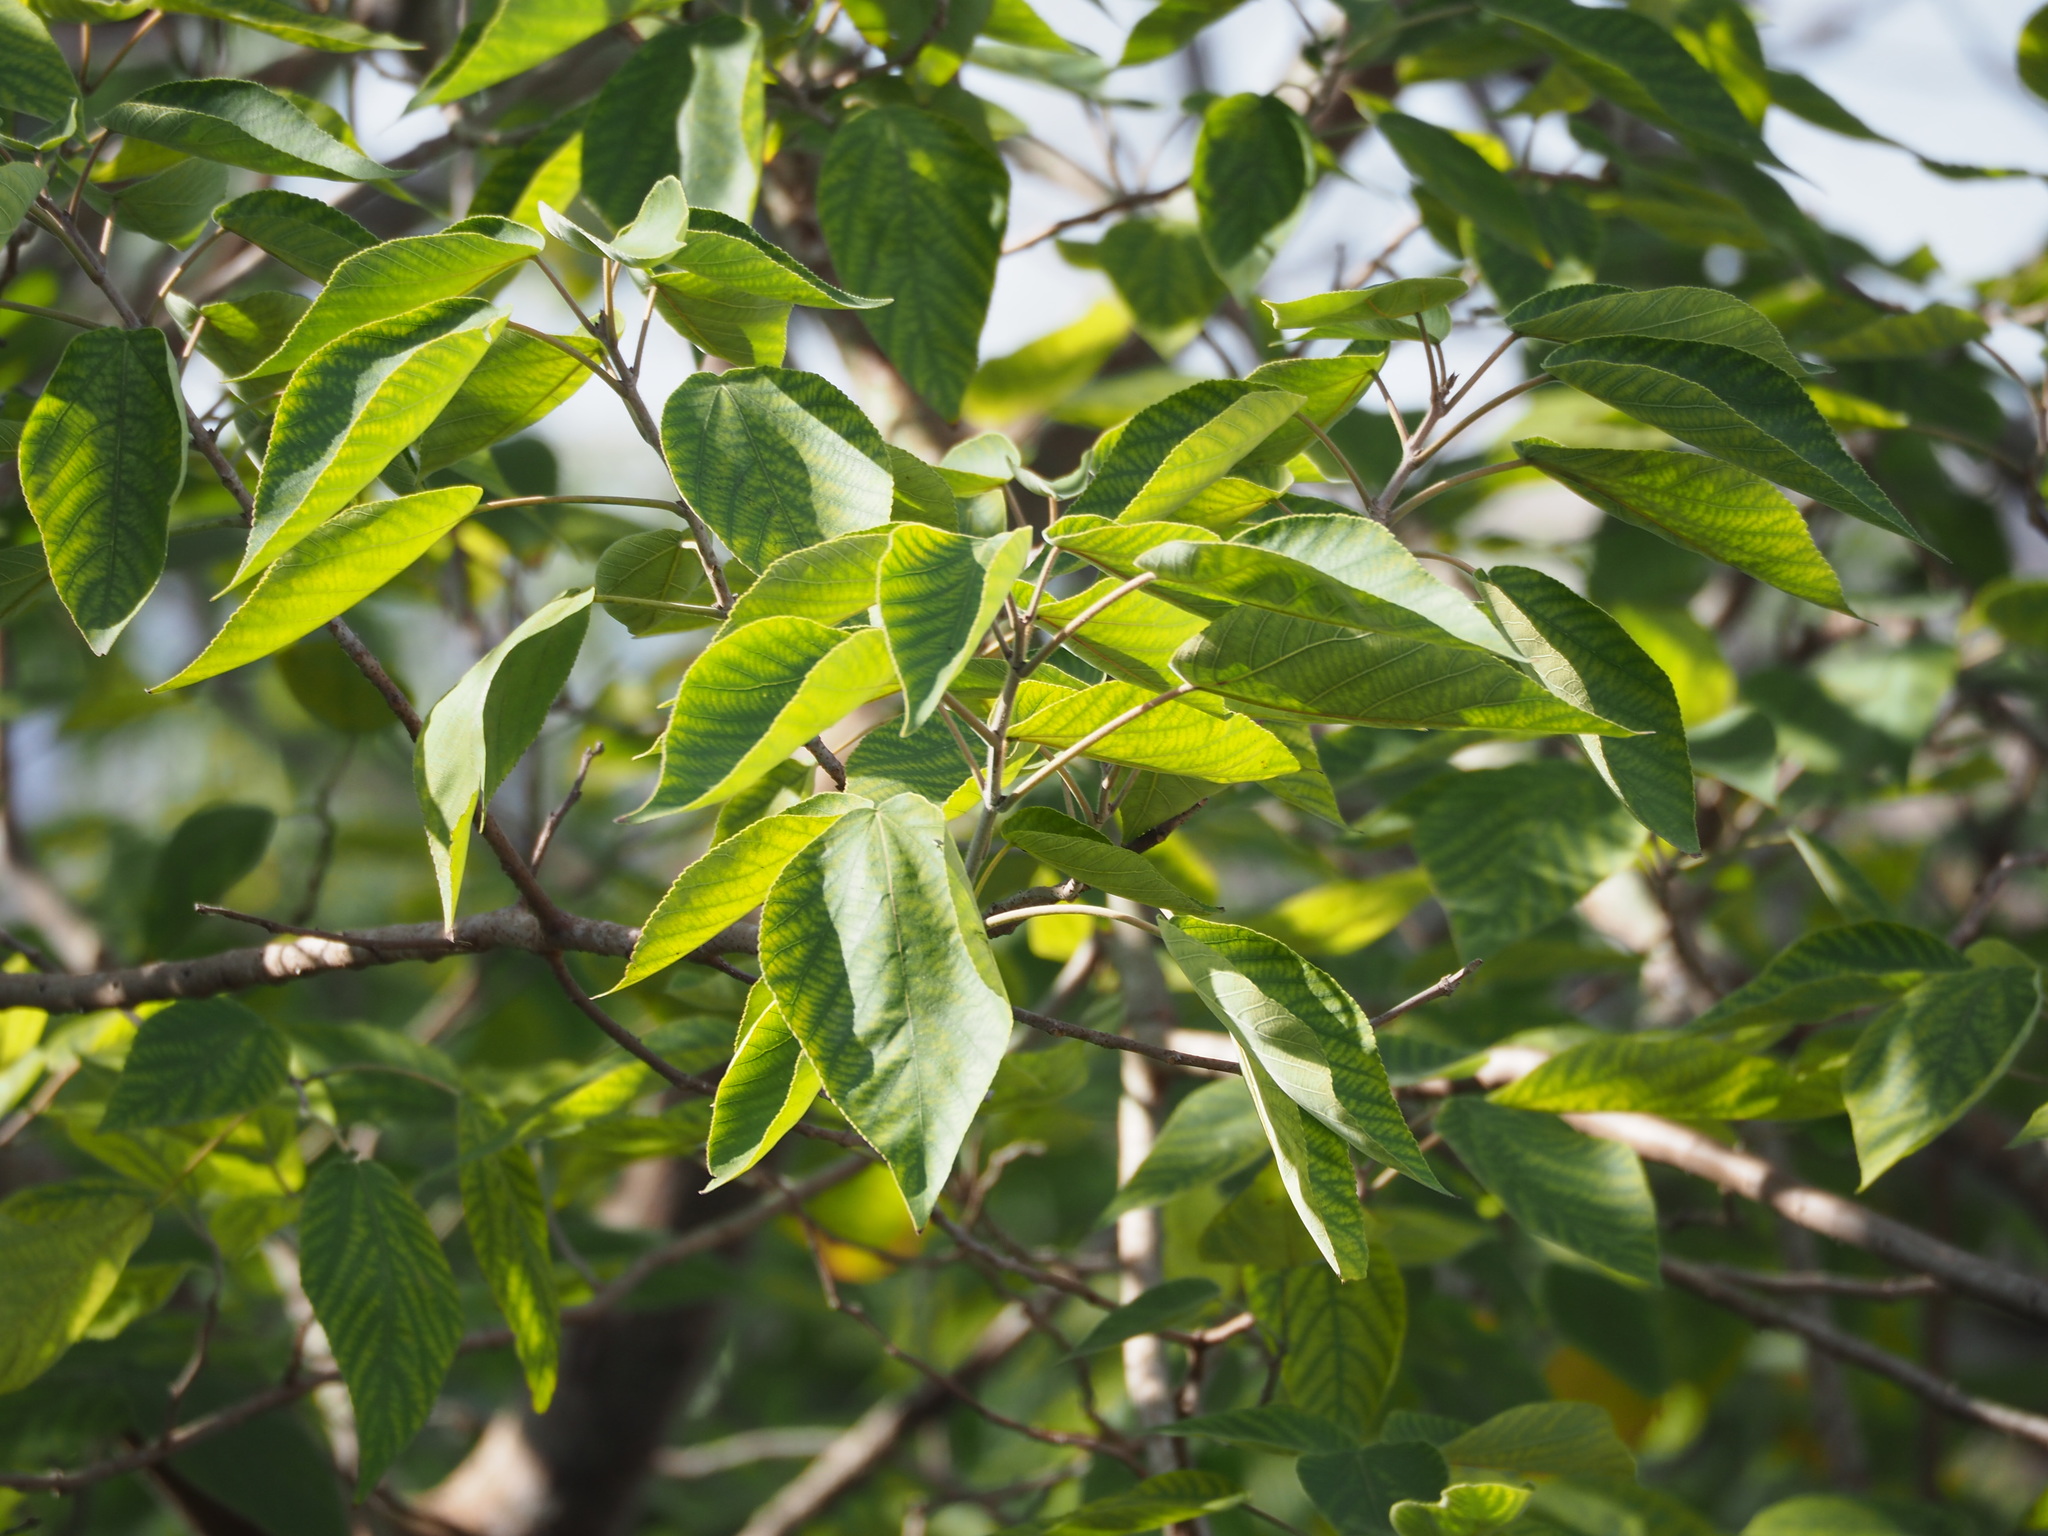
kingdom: Plantae
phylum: Tracheophyta
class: Magnoliopsida
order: Rosales
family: Moraceae
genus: Broussonetia
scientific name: Broussonetia papyrifera
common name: Paper mulberry
